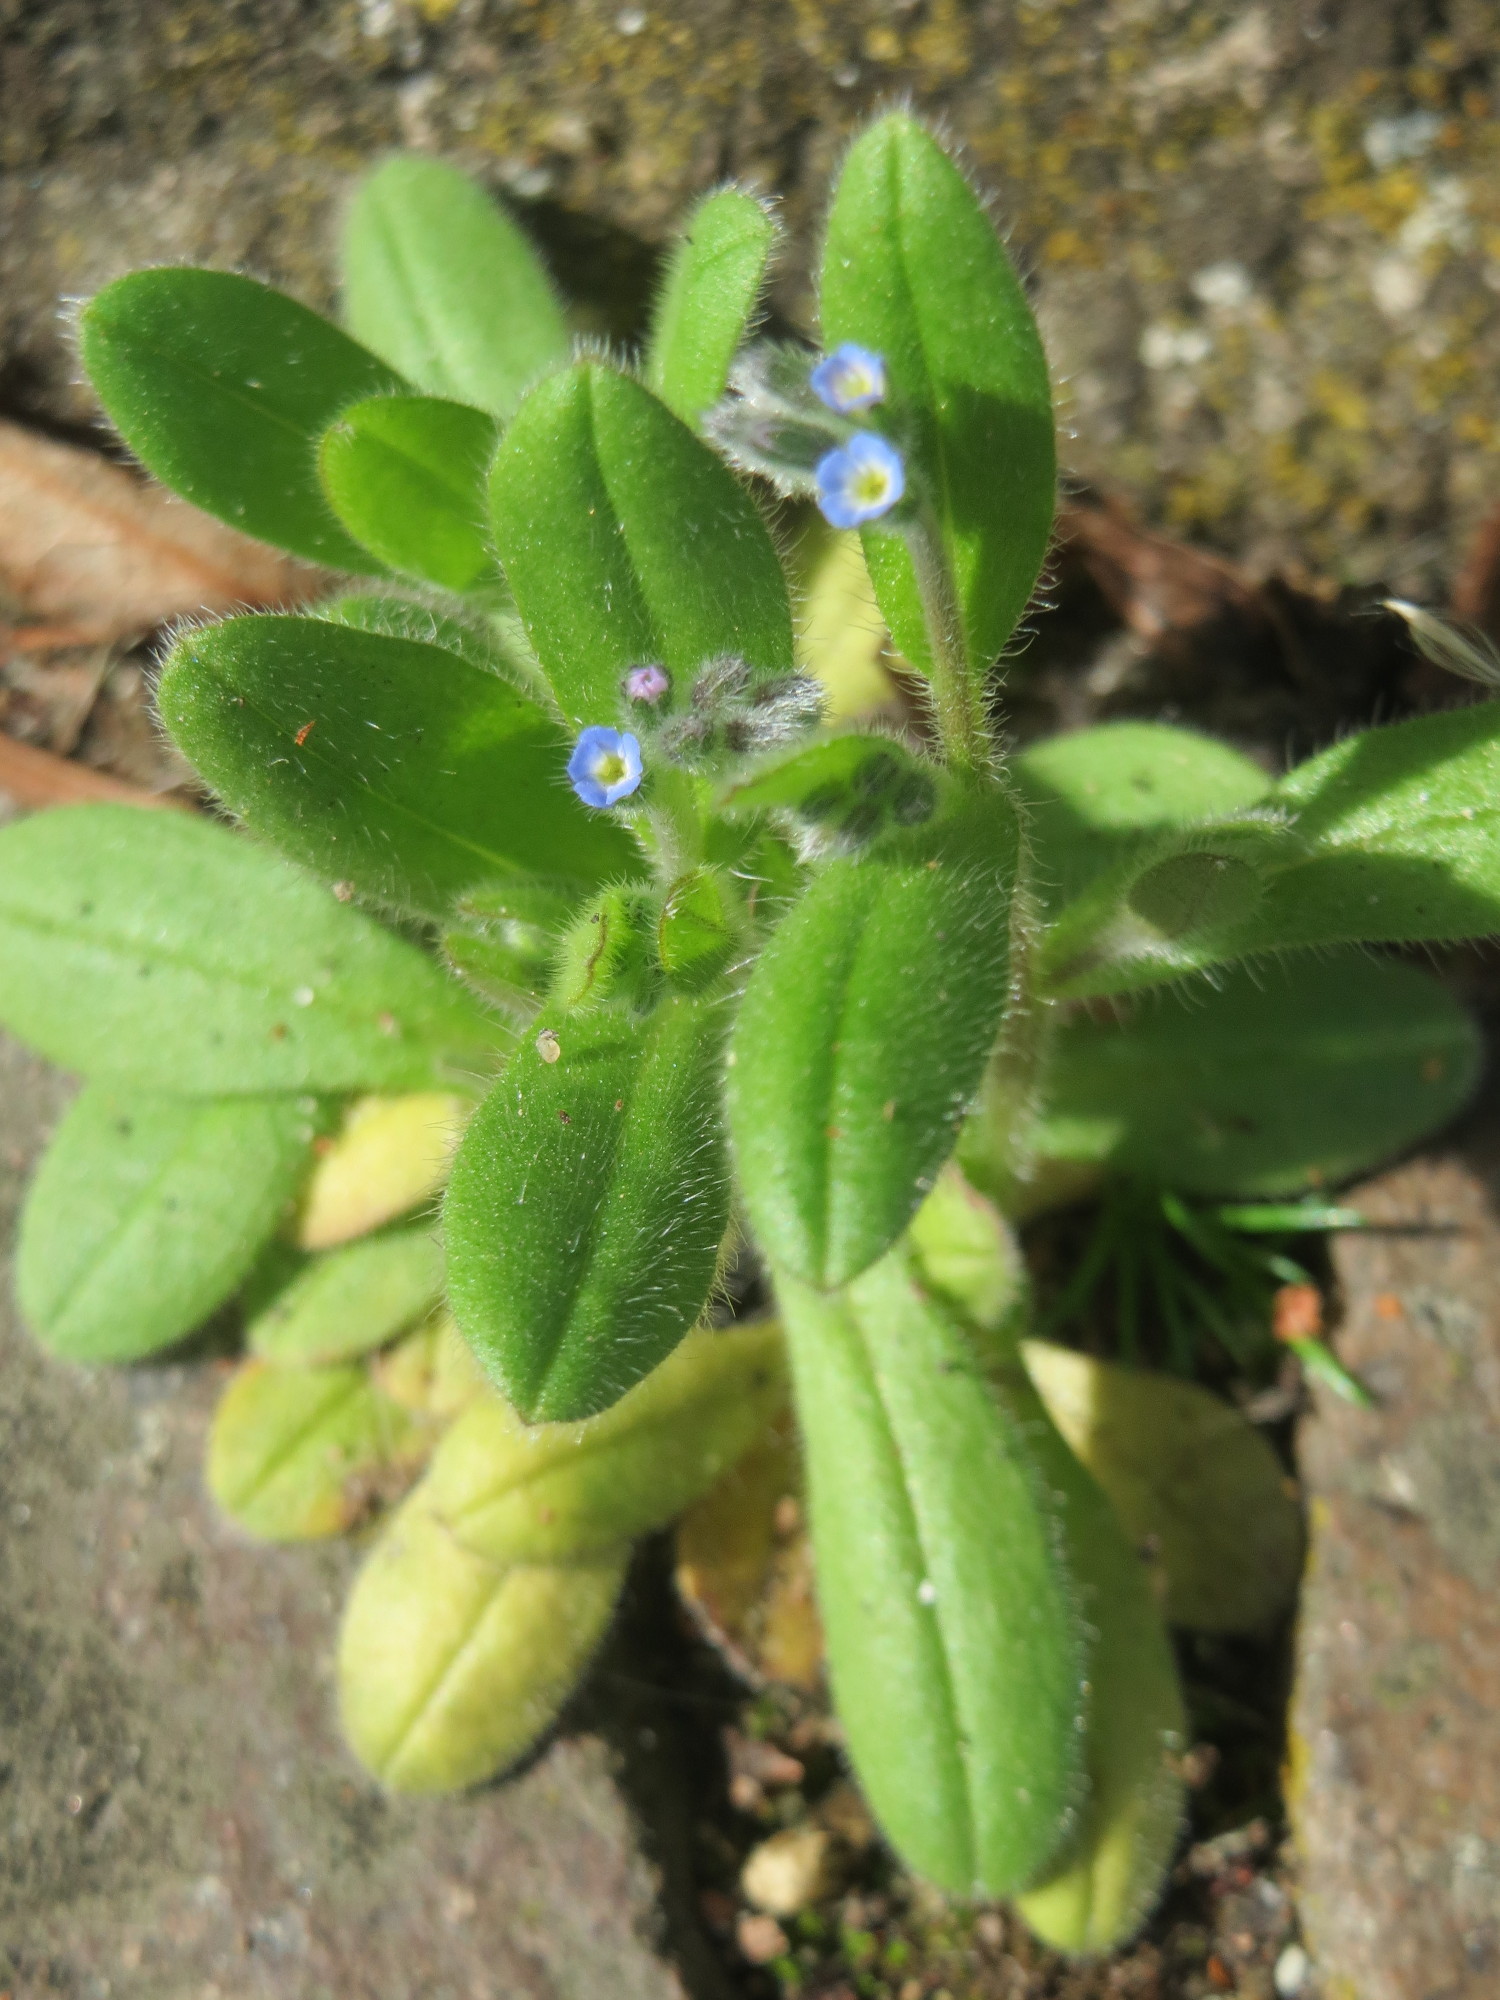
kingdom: Plantae
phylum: Tracheophyta
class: Magnoliopsida
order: Boraginales
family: Boraginaceae
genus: Myosotis
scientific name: Myosotis arvensis
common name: Field forget-me-not
